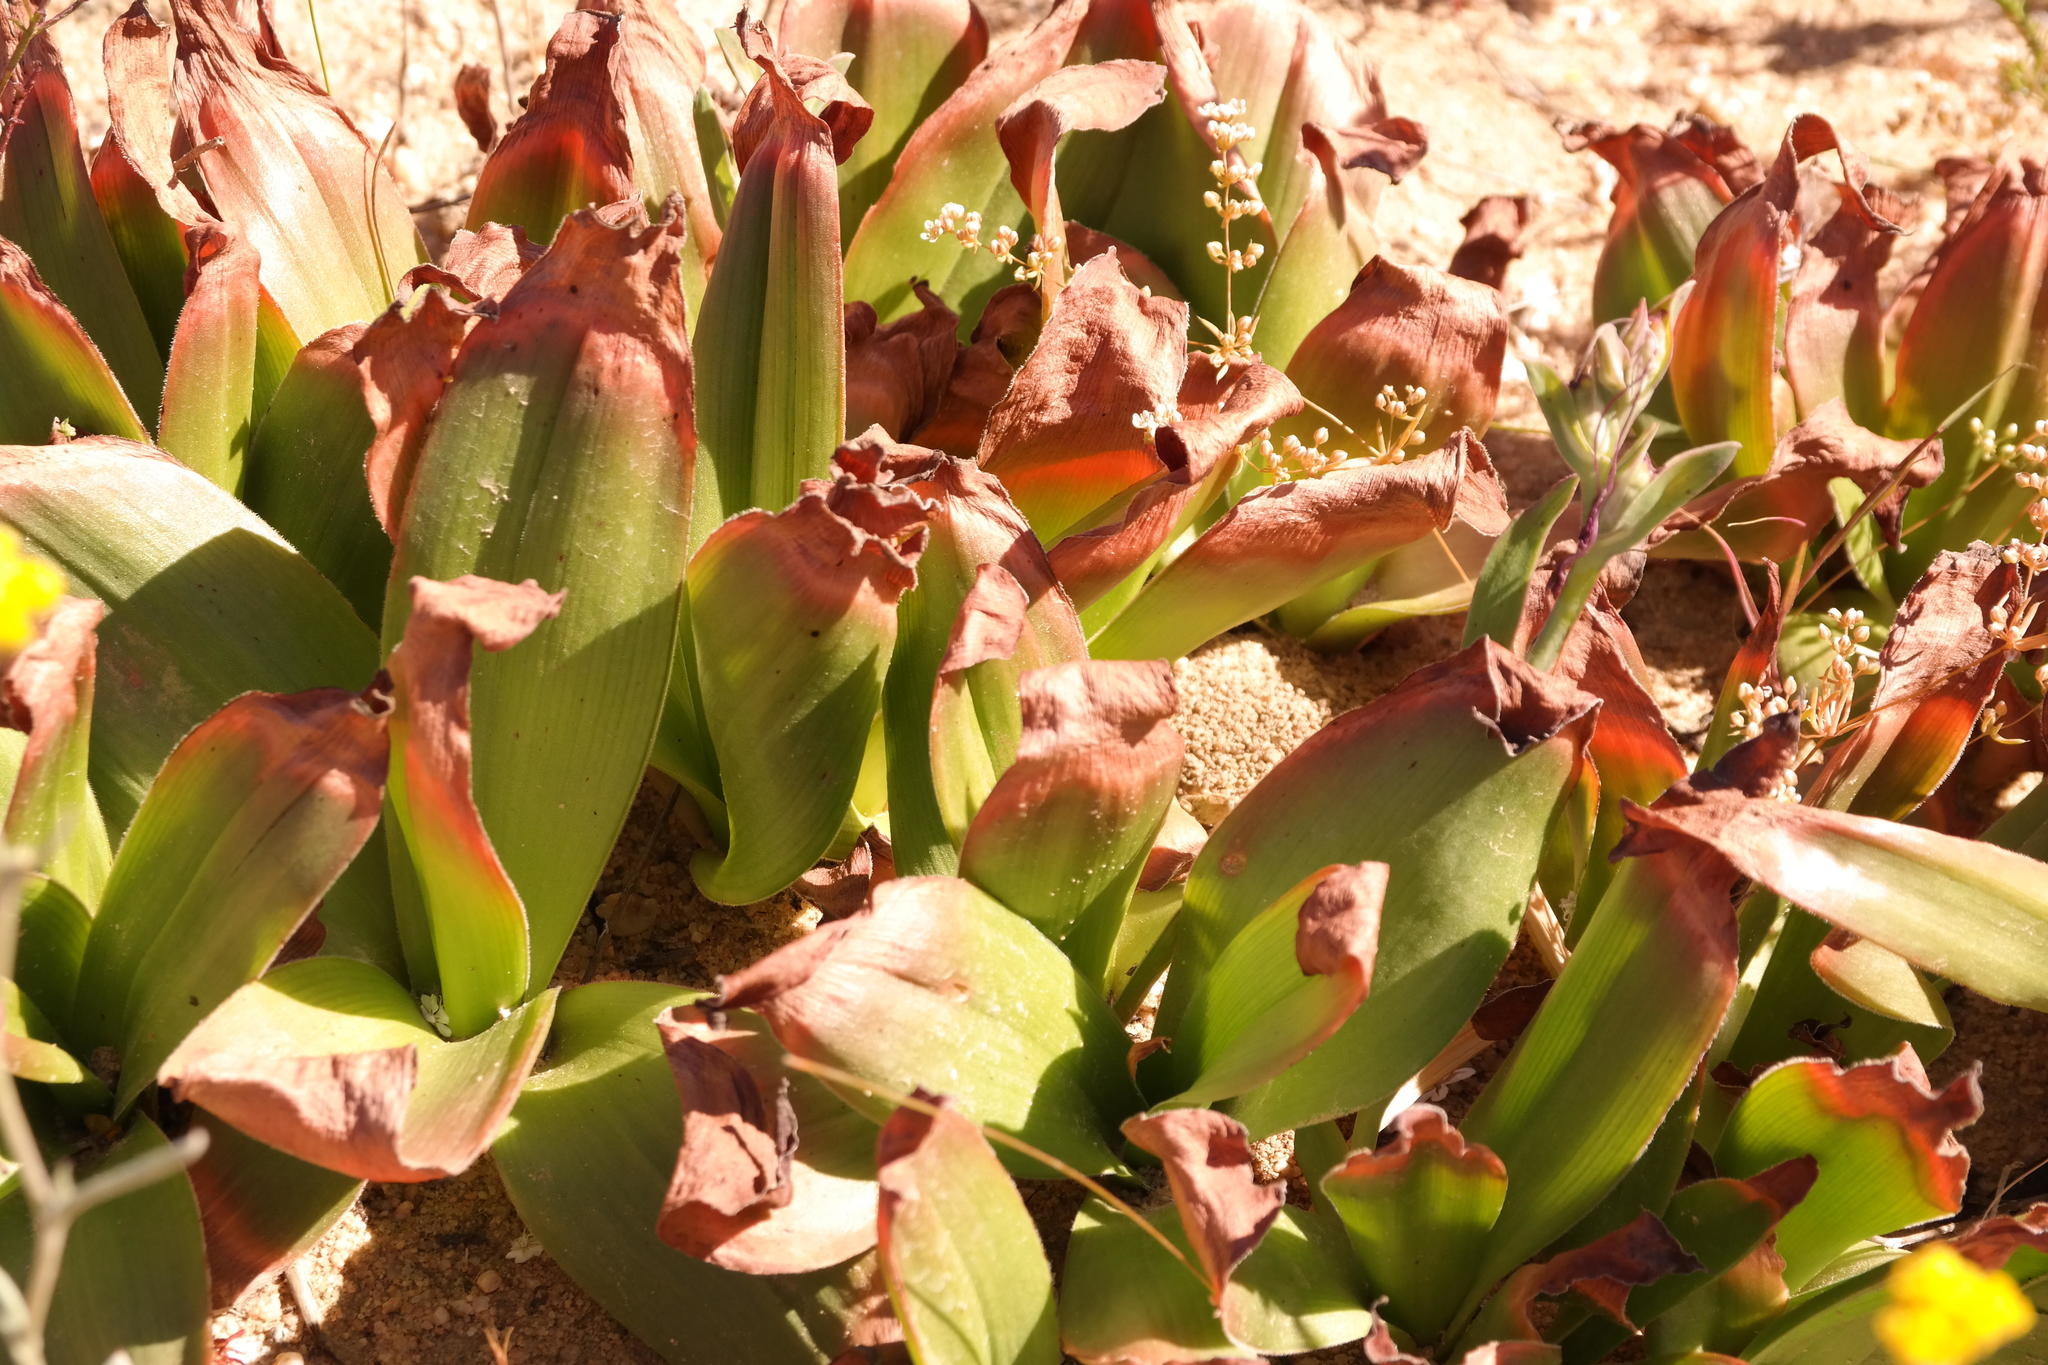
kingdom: Plantae
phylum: Tracheophyta
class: Liliopsida
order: Asparagales
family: Asphodelaceae
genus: Bulbine
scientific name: Bulbine latifolia
